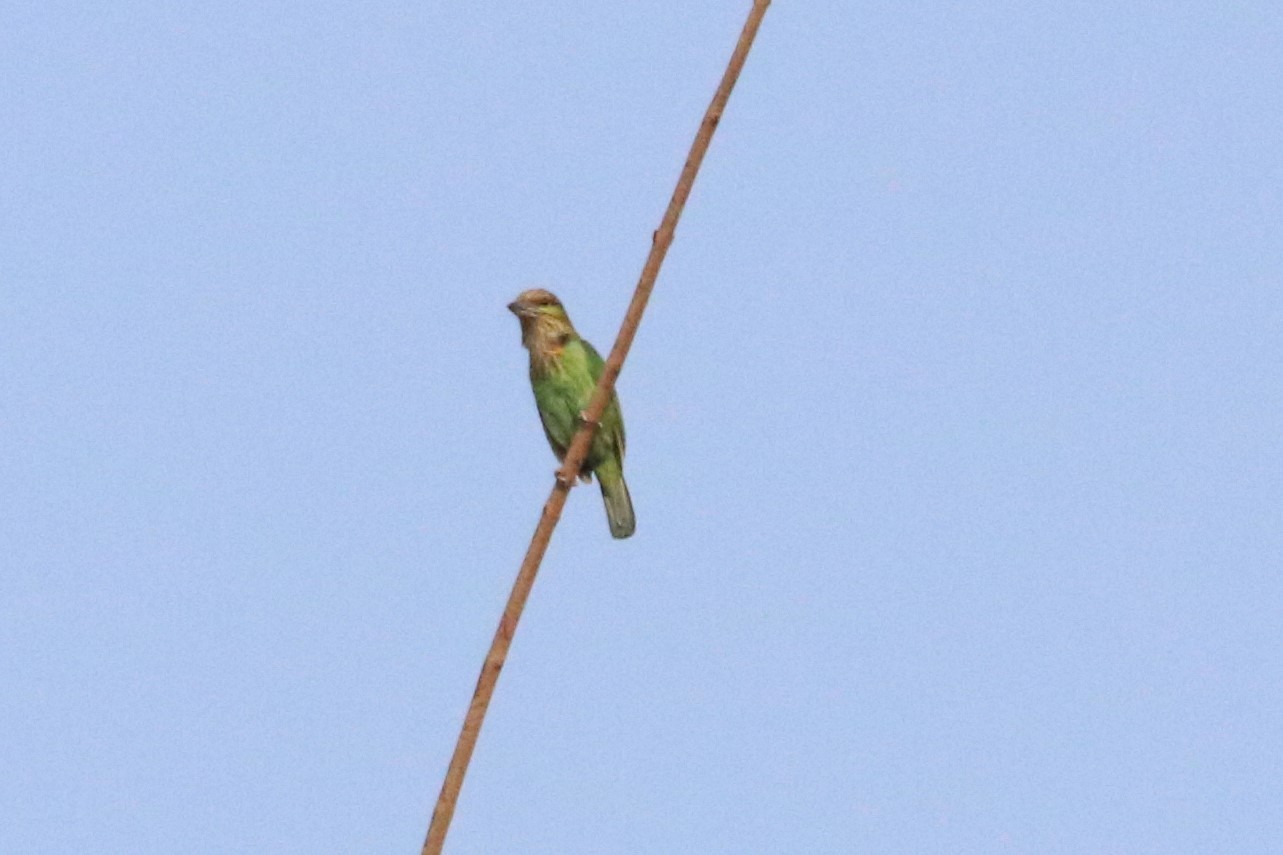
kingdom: Animalia
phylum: Chordata
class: Aves
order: Piciformes
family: Megalaimidae
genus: Psilopogon
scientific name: Psilopogon faiostrictus
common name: Green-eared barbet
